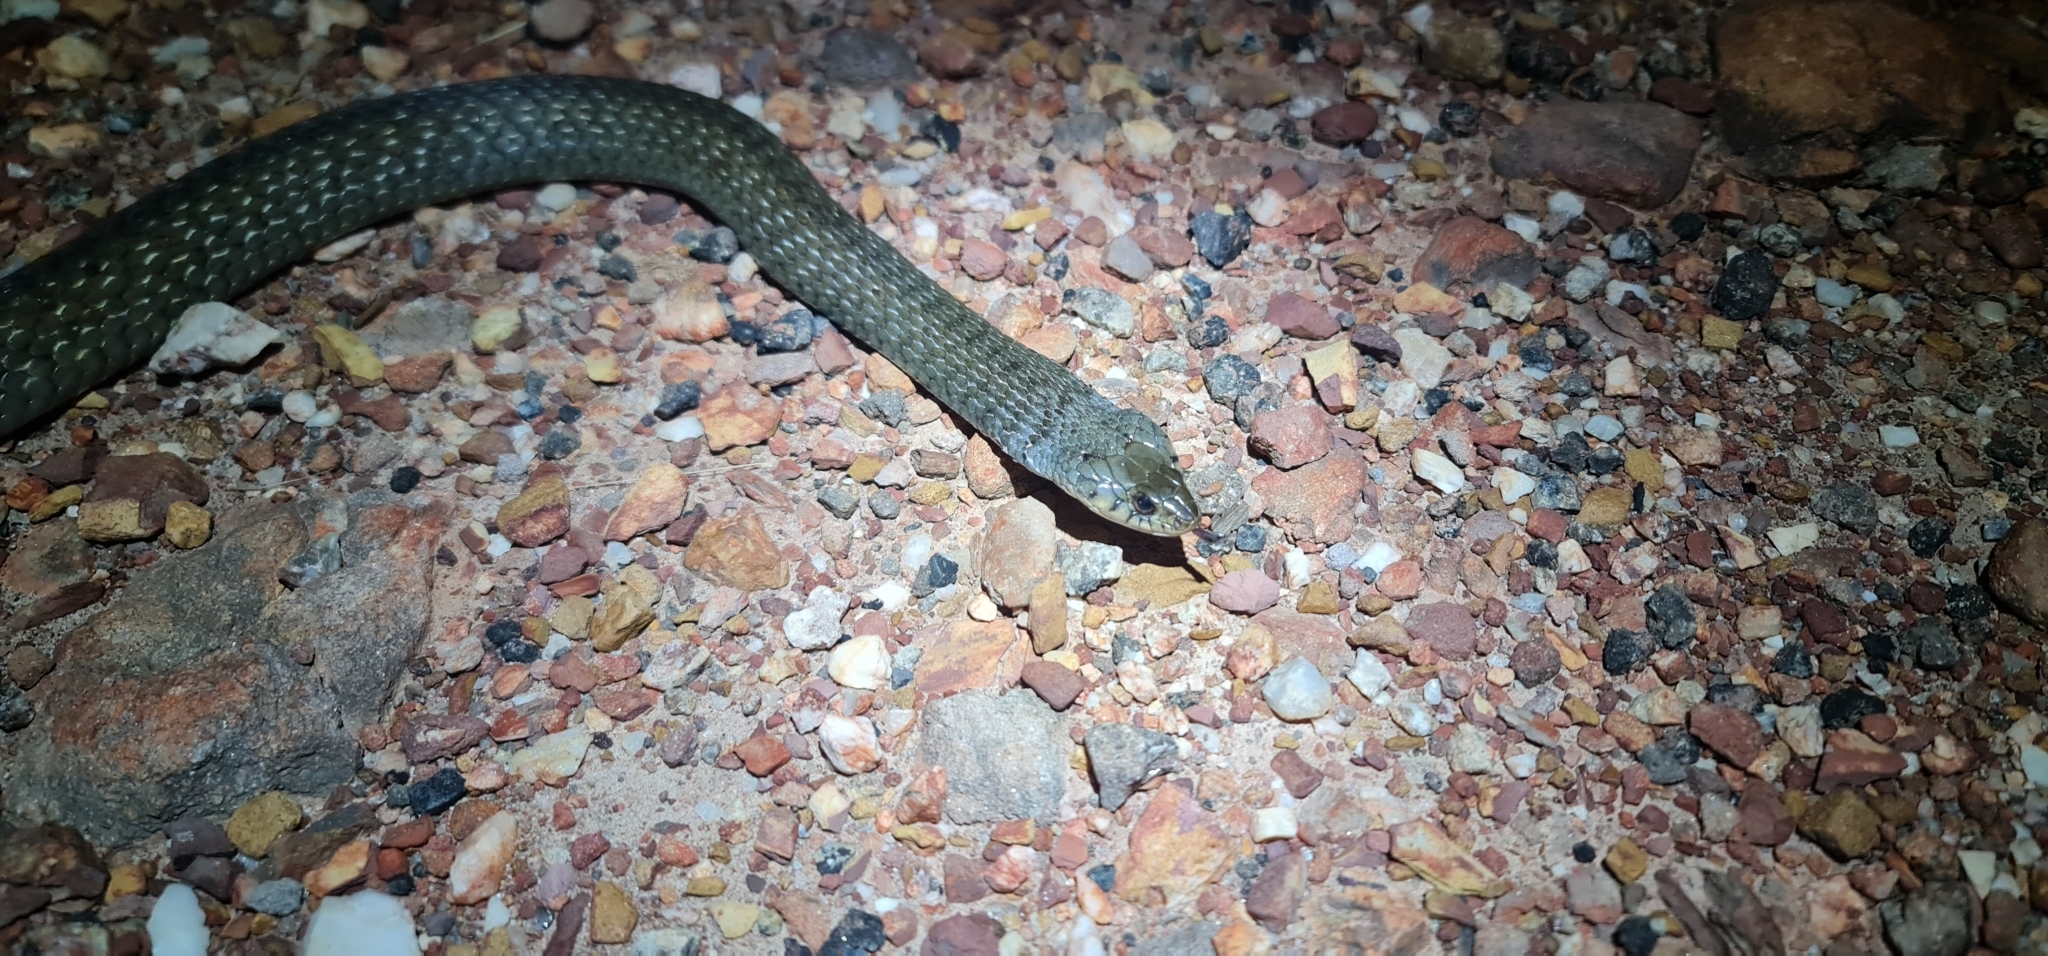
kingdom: Animalia
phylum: Chordata
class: Squamata
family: Colubridae
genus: Tropidonophis
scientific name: Tropidonophis mairii
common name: Common keelback
